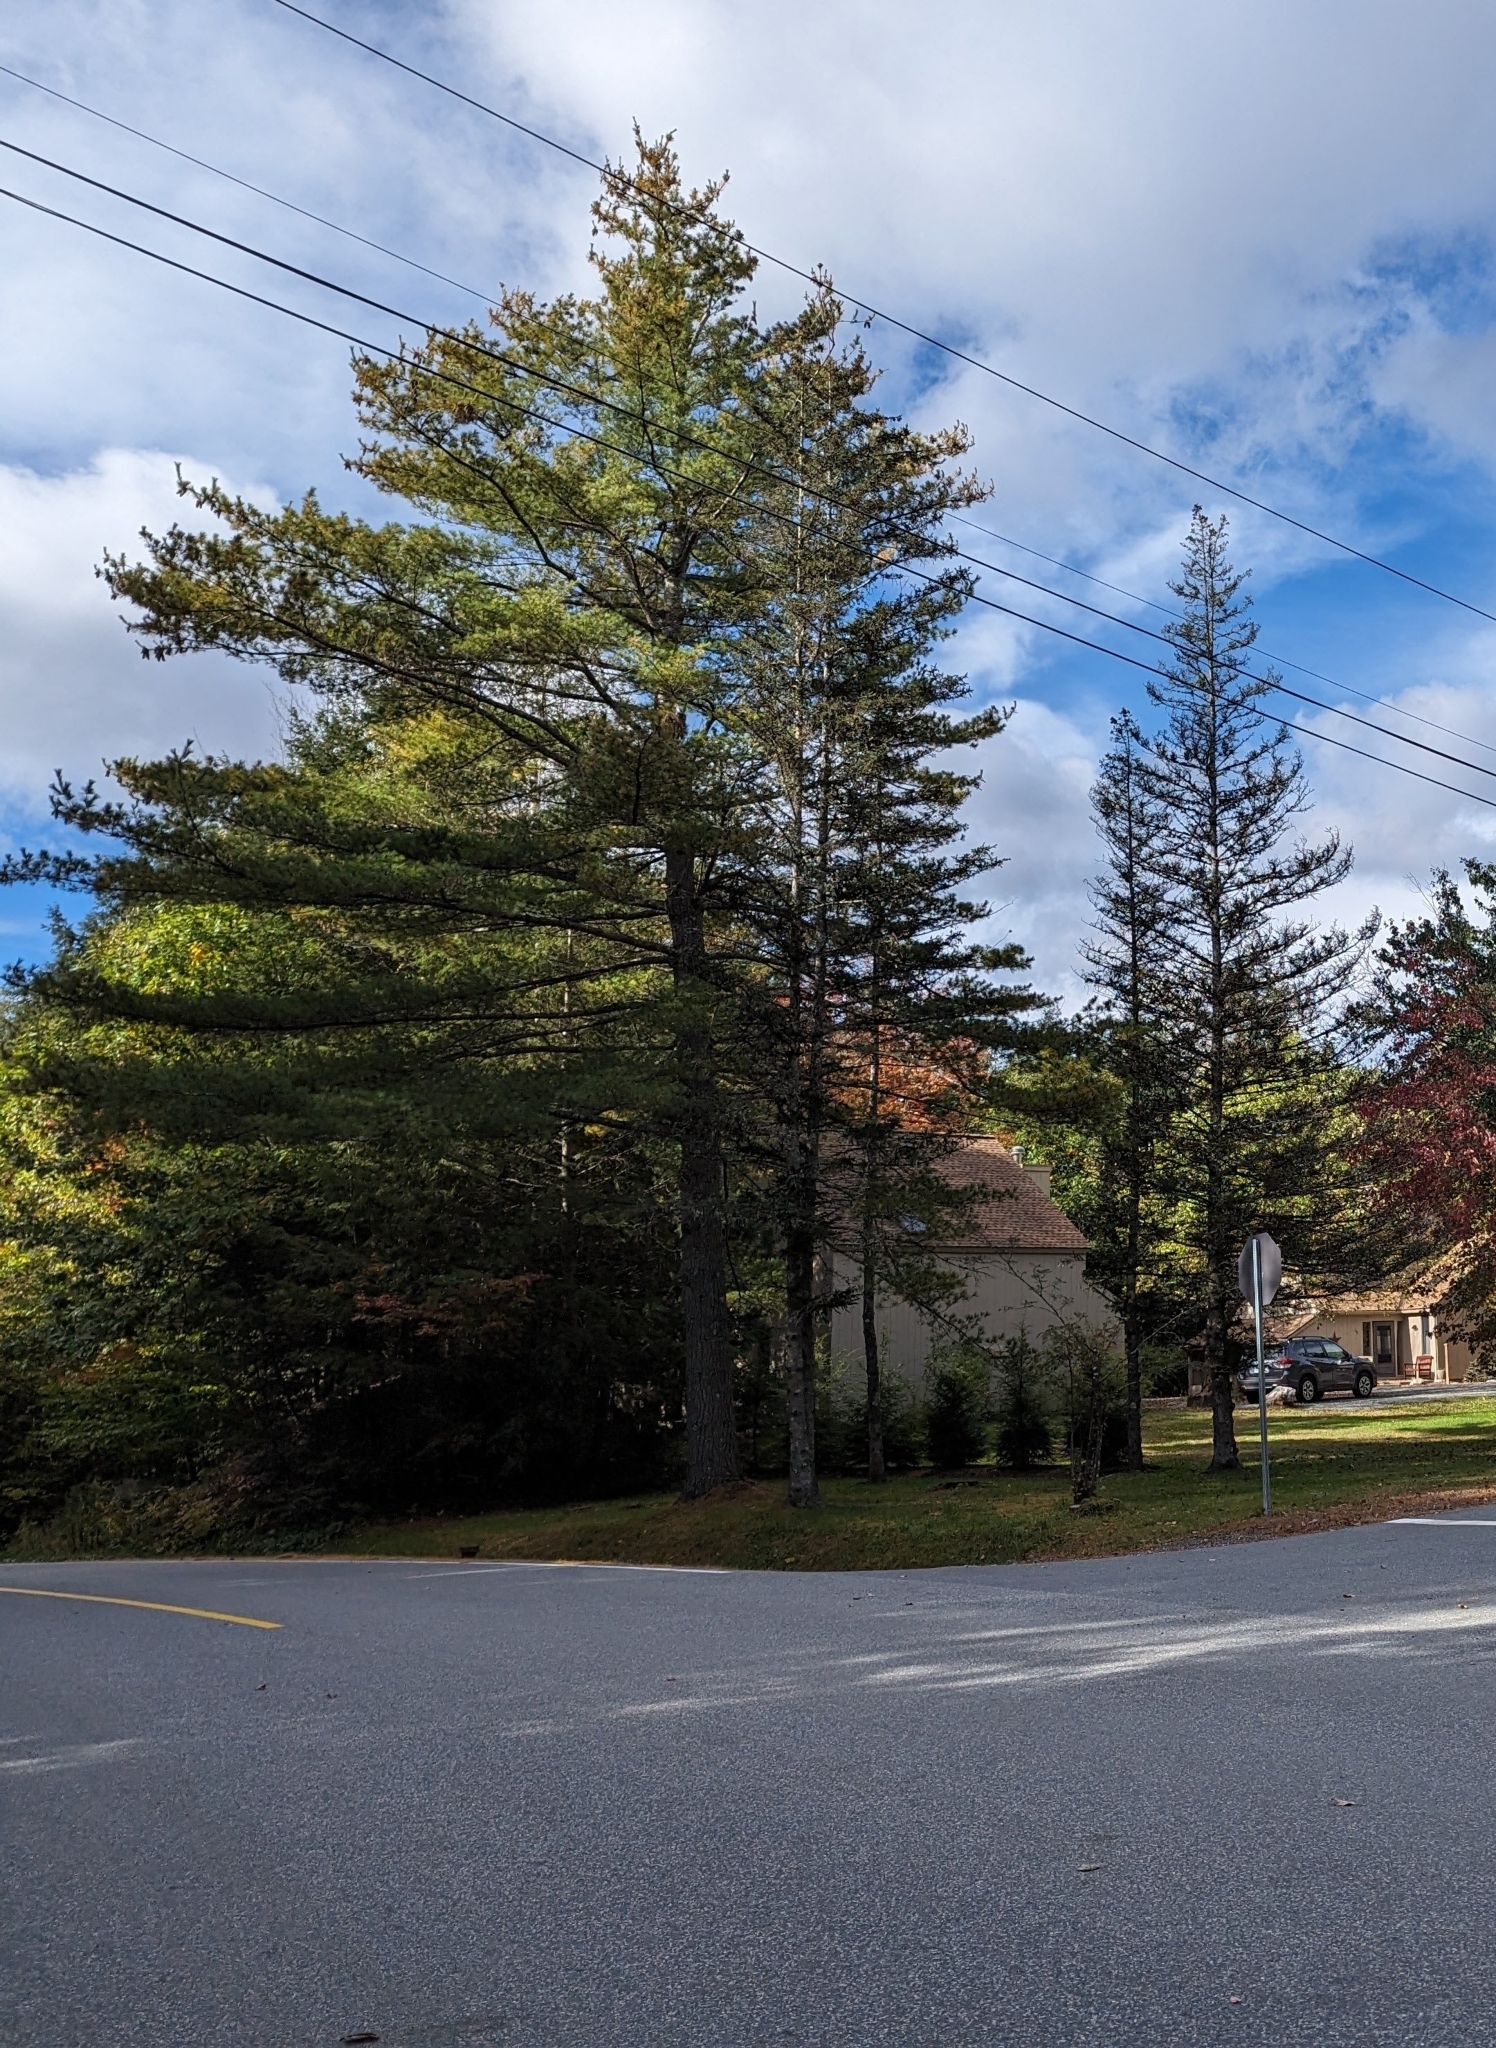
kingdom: Plantae
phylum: Tracheophyta
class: Pinopsida
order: Pinales
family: Pinaceae
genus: Pinus
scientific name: Pinus strobus
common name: Weymouth pine
